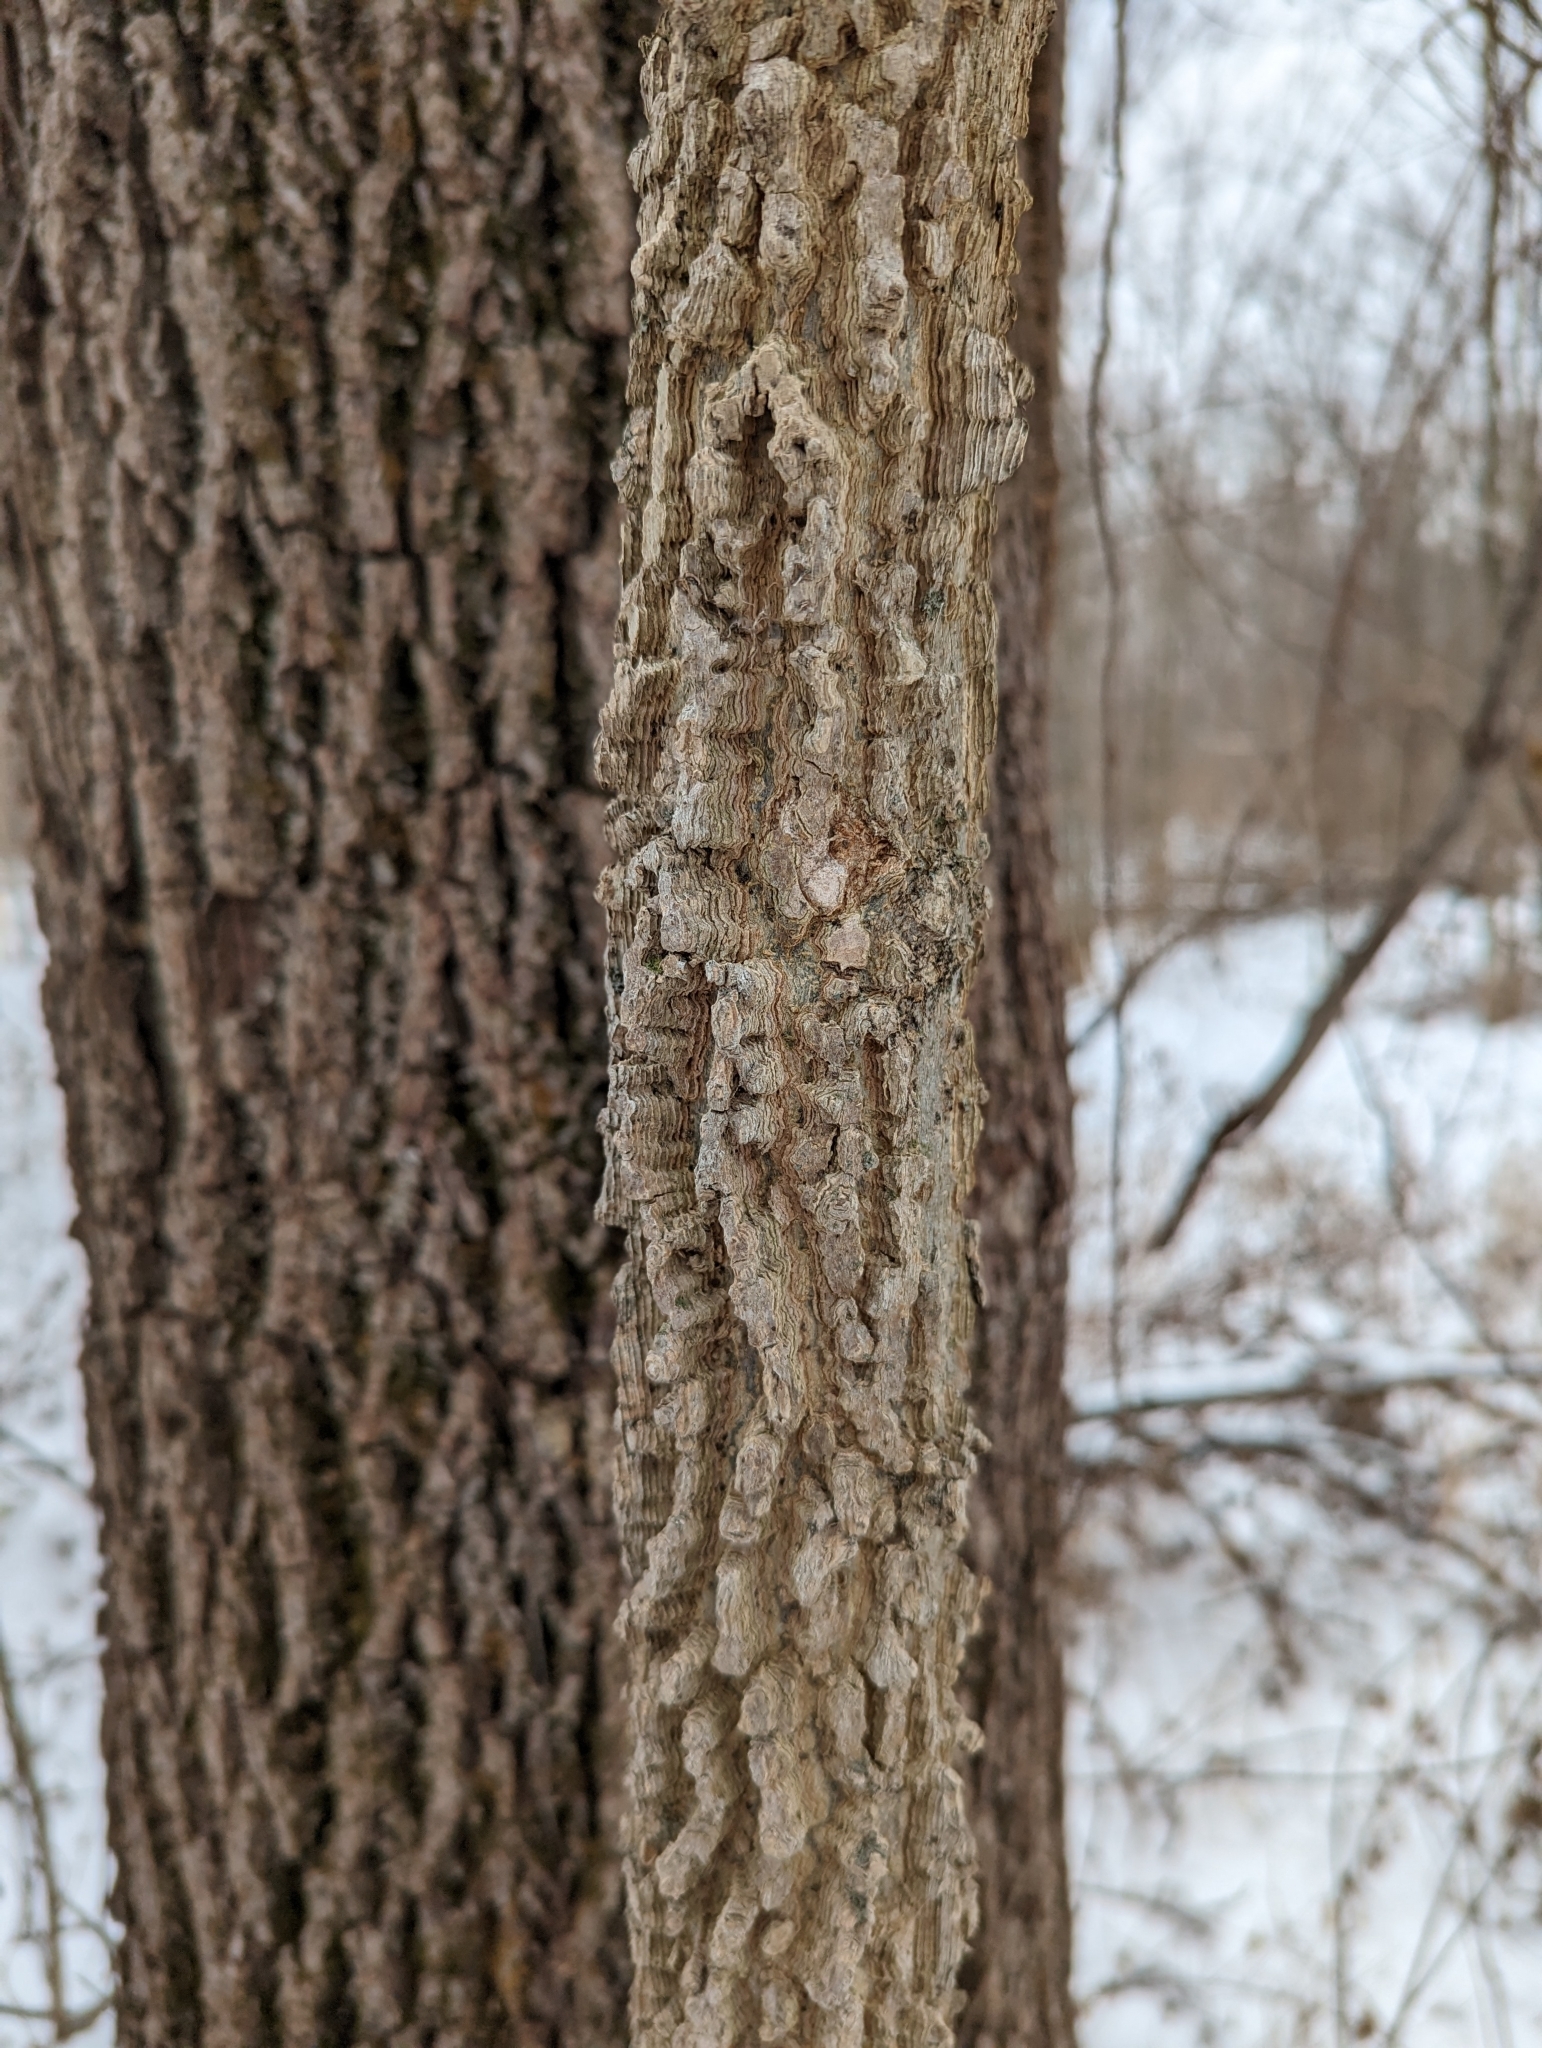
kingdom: Plantae
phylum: Tracheophyta
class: Magnoliopsida
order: Rosales
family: Cannabaceae
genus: Celtis
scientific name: Celtis occidentalis
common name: Common hackberry
